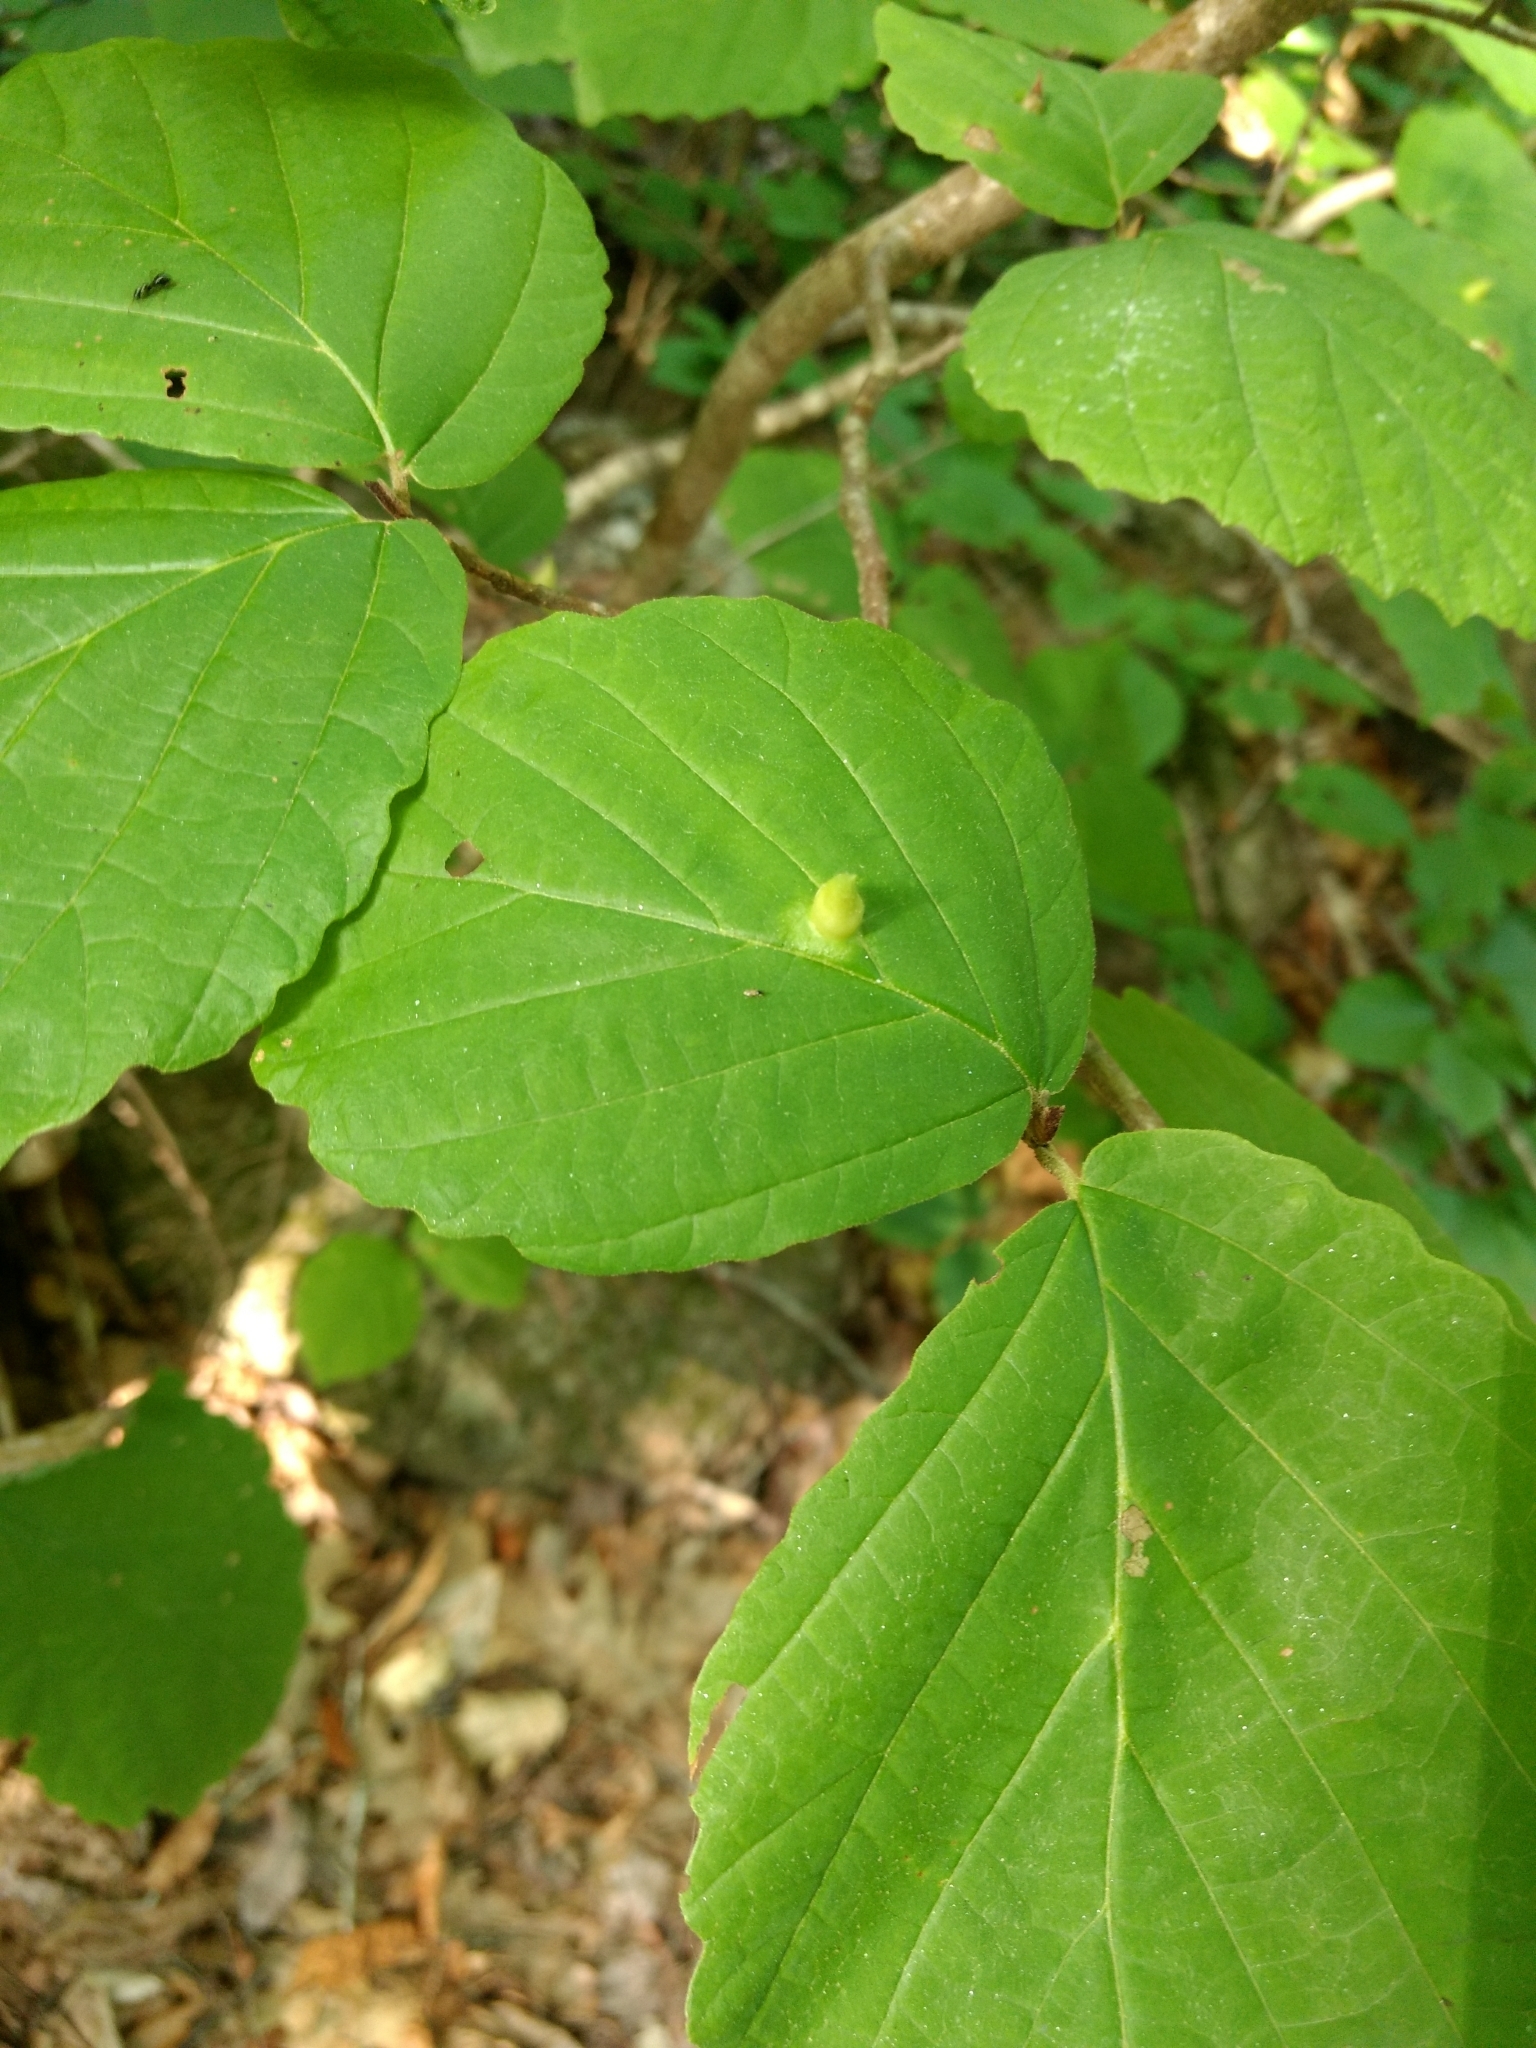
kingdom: Plantae
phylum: Tracheophyta
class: Magnoliopsida
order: Saxifragales
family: Hamamelidaceae
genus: Hamamelis
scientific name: Hamamelis virginiana
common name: Witch-hazel
